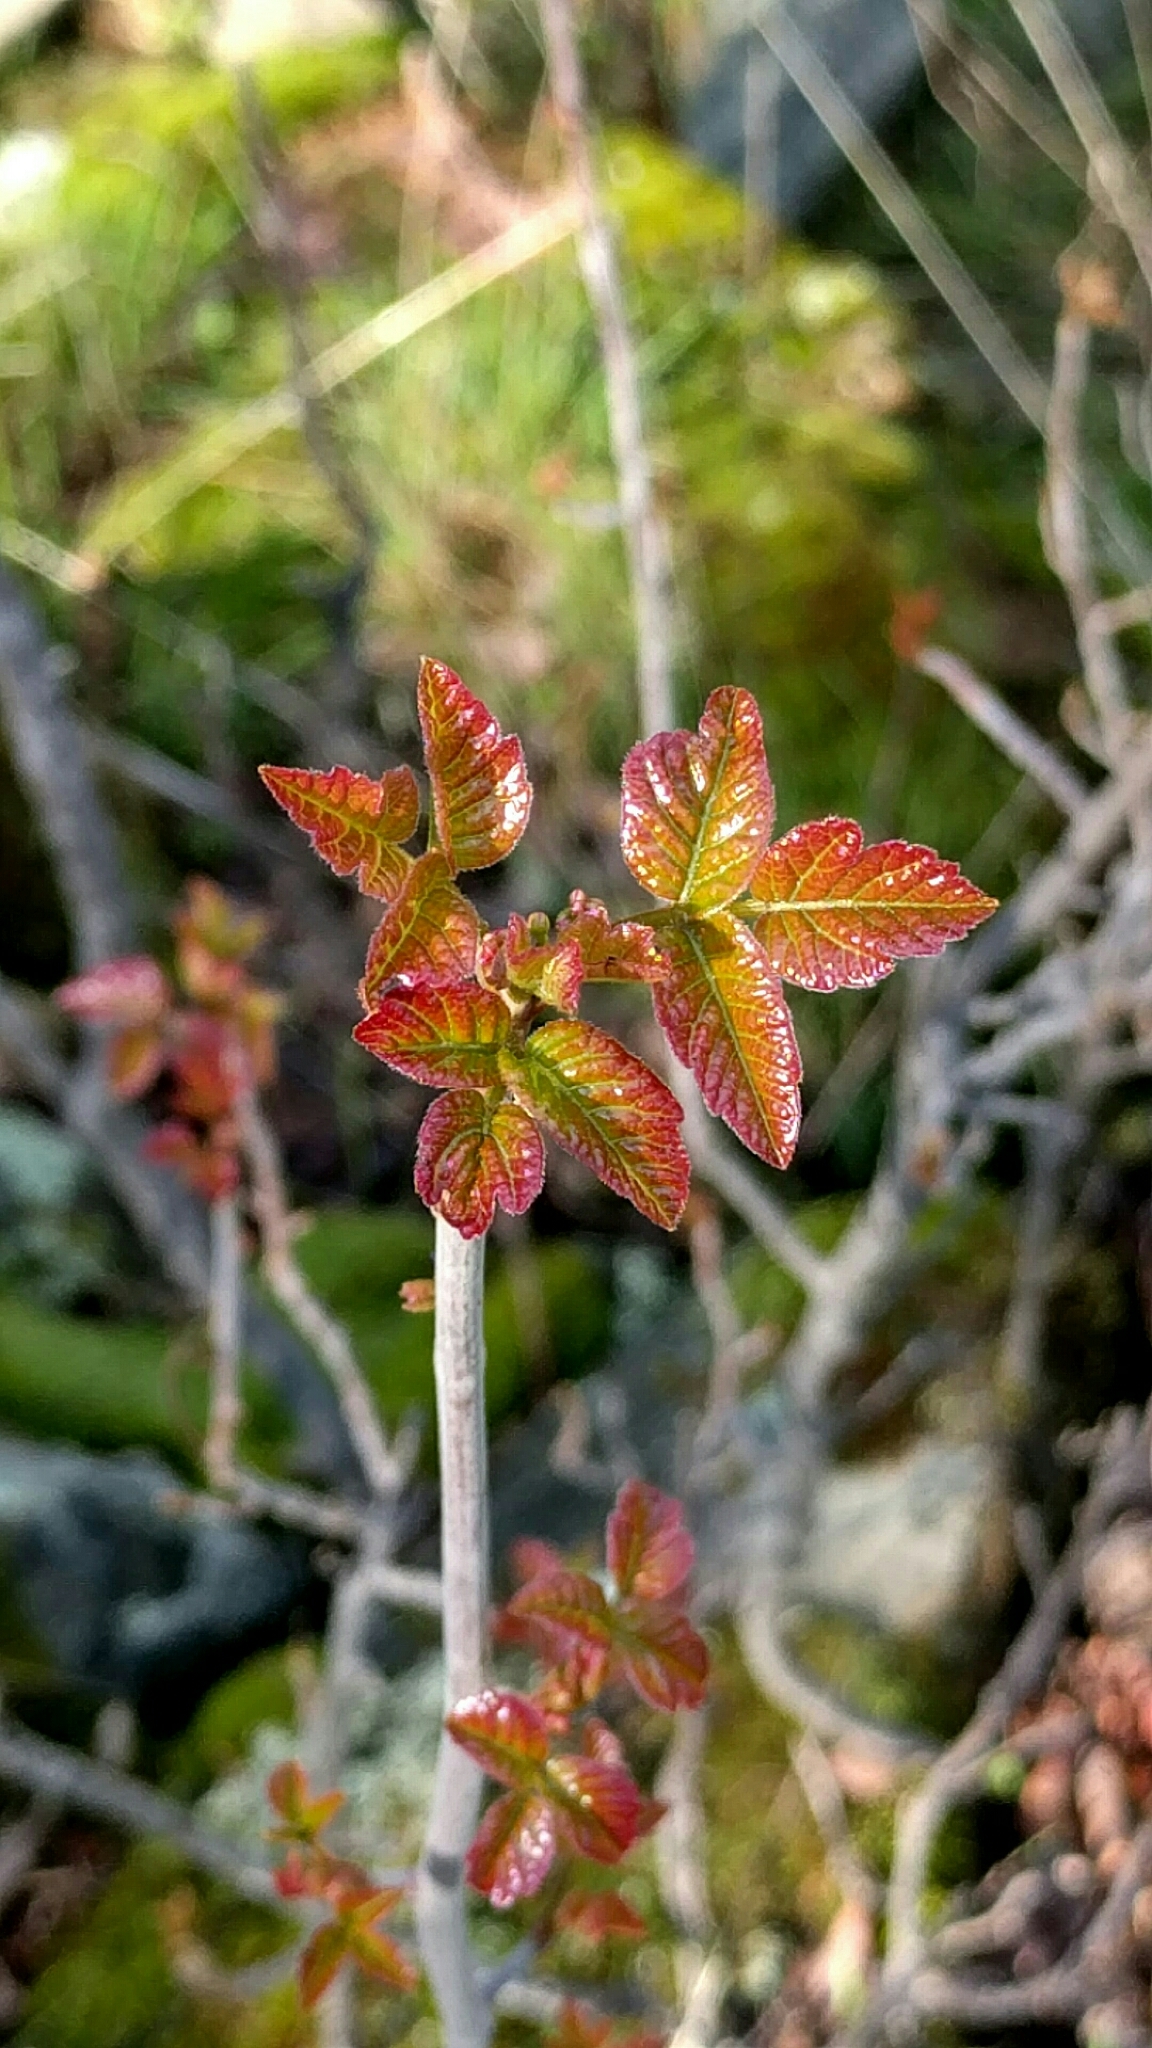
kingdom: Plantae
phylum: Tracheophyta
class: Magnoliopsida
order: Sapindales
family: Anacardiaceae
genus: Toxicodendron
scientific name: Toxicodendron diversilobum
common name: Pacific poison-oak
